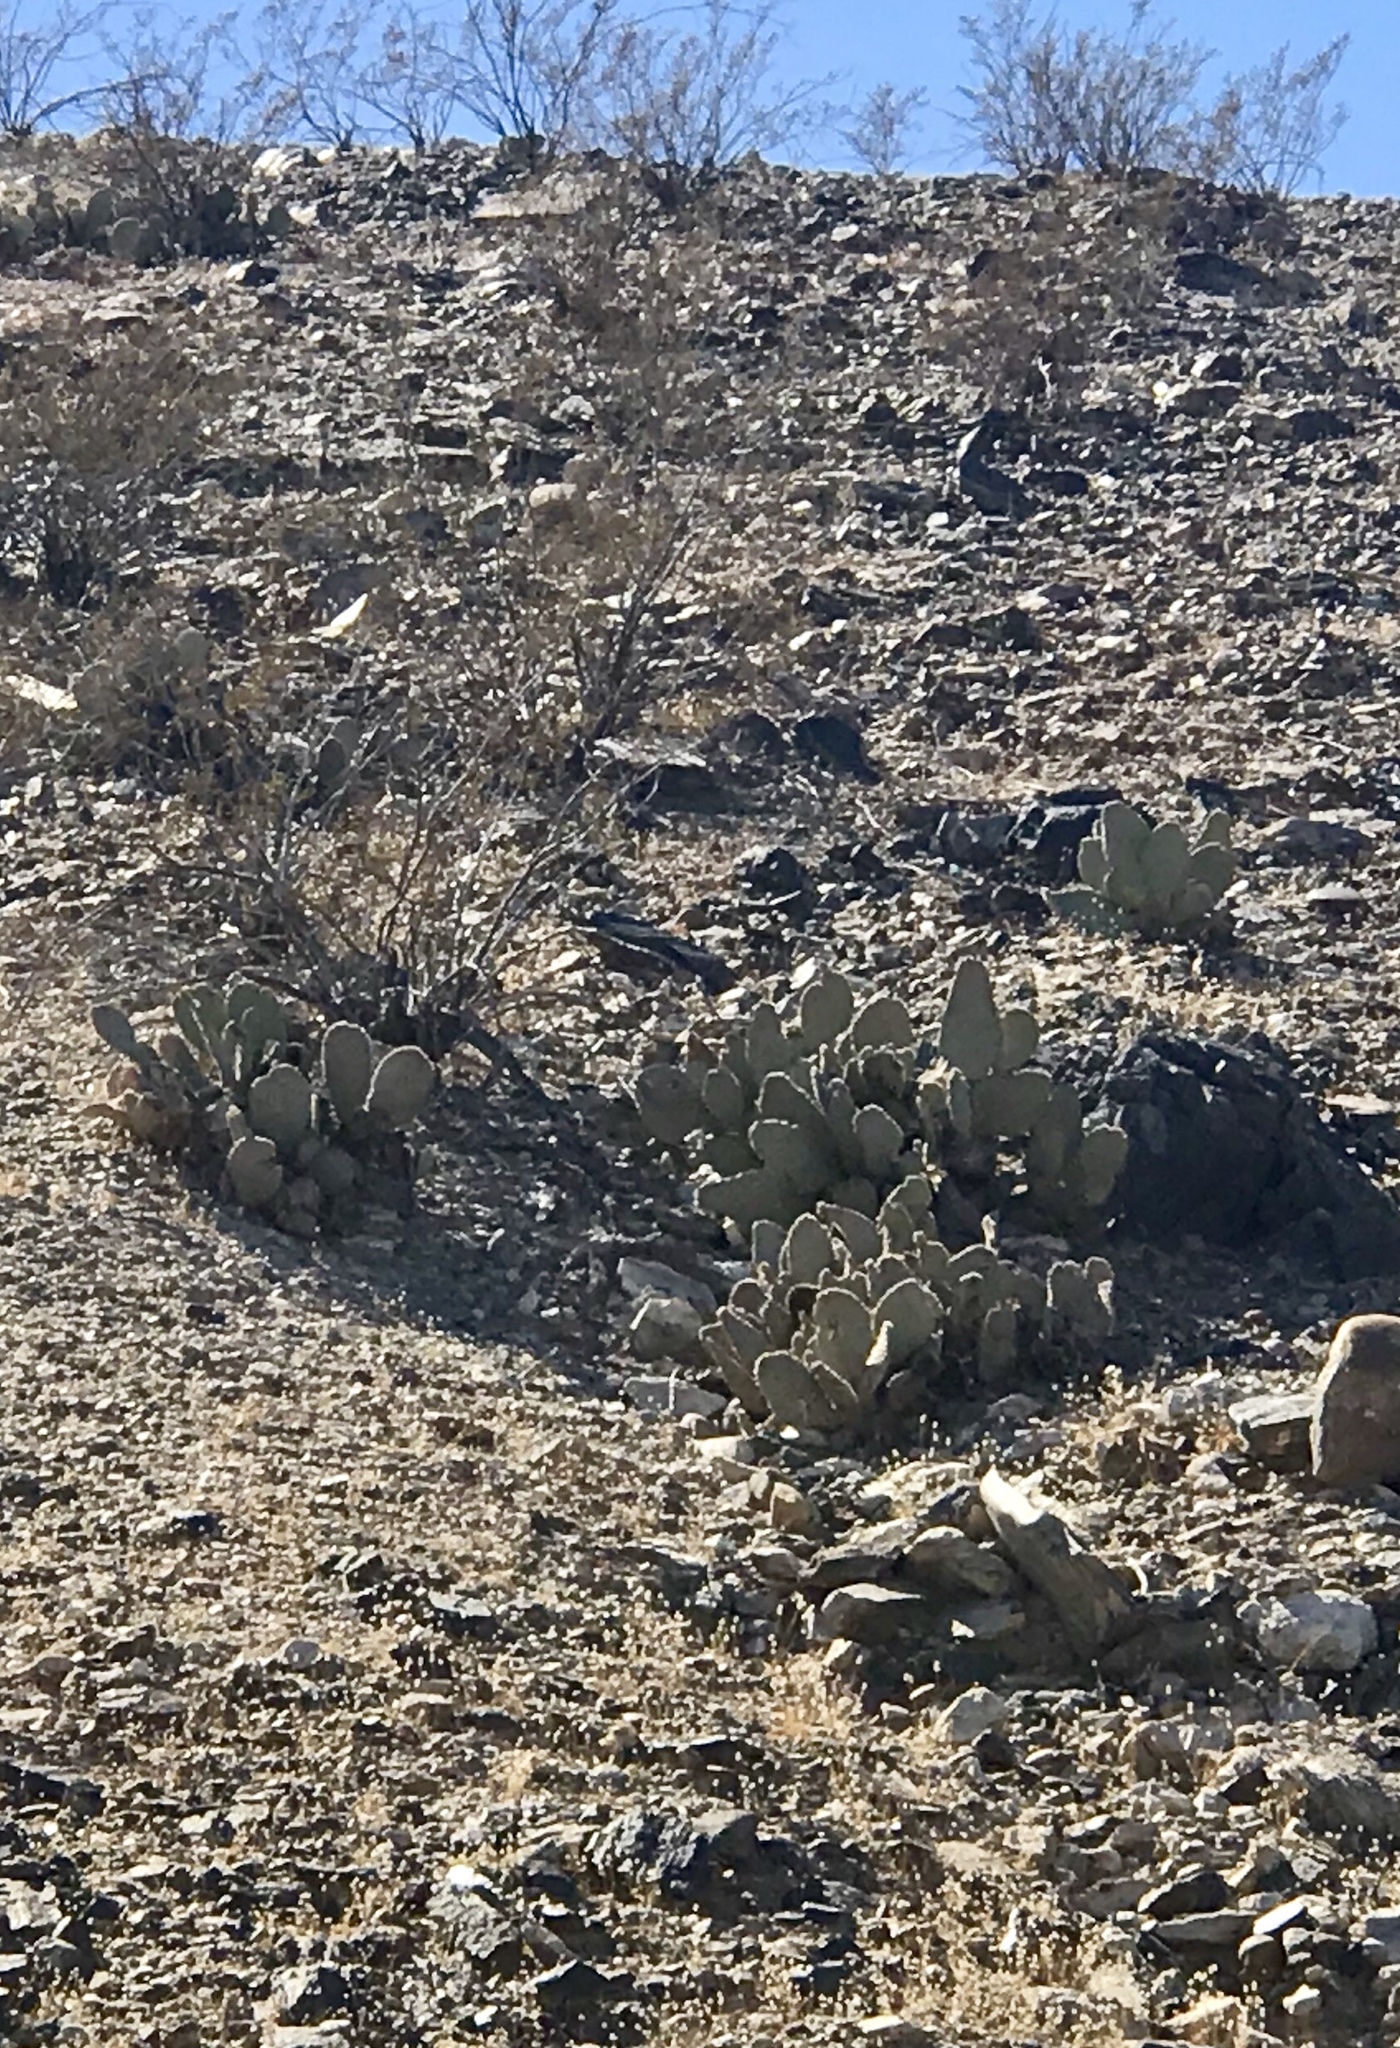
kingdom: Plantae
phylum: Tracheophyta
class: Magnoliopsida
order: Caryophyllales
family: Cactaceae
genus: Opuntia
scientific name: Opuntia basilaris
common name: Beavertail prickly-pear
